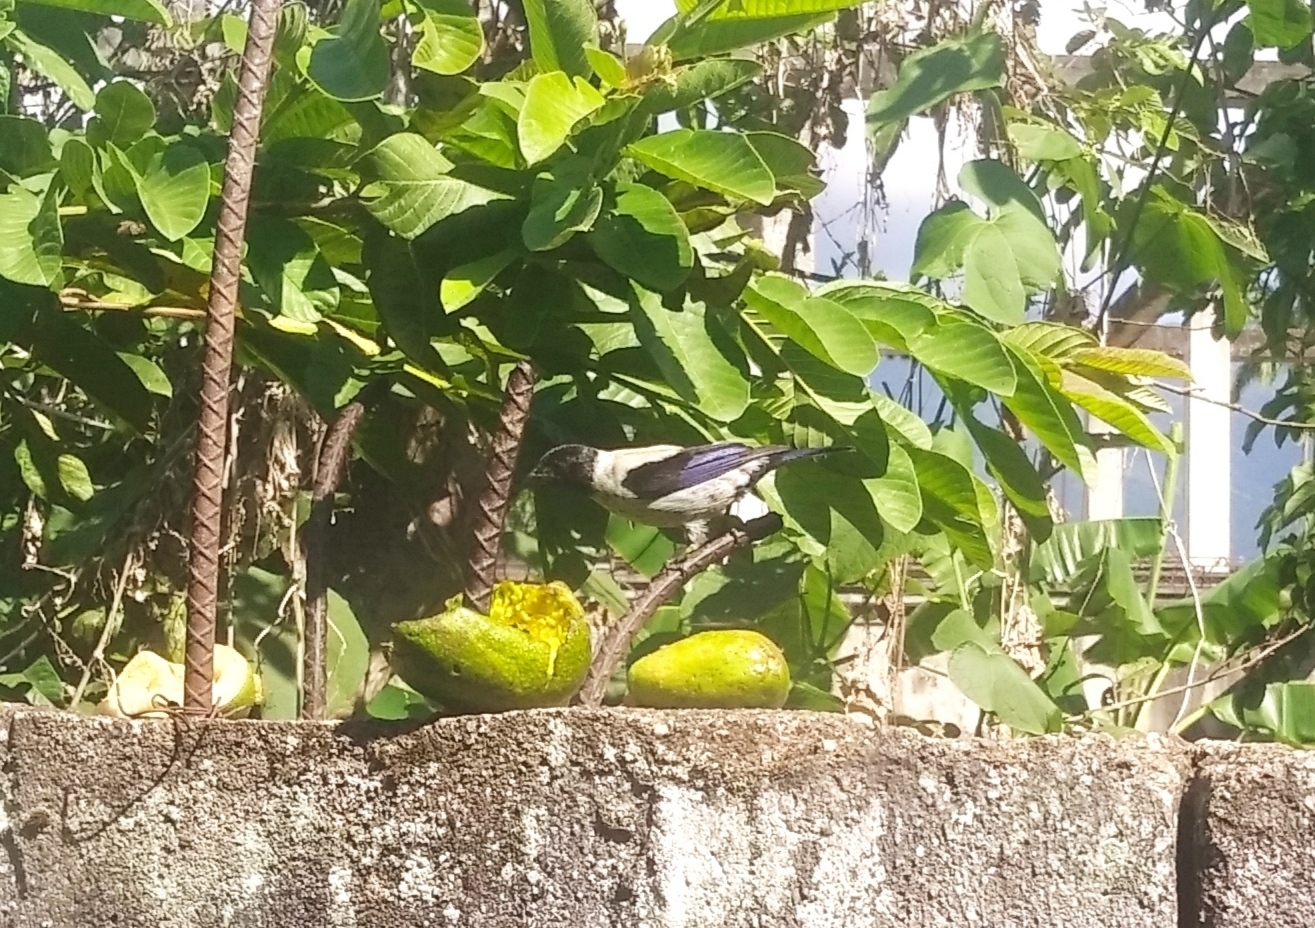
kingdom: Animalia
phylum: Chordata
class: Aves
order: Passeriformes
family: Thraupidae
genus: Stilpnia
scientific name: Stilpnia cyanoptera
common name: Black-headed tanager
